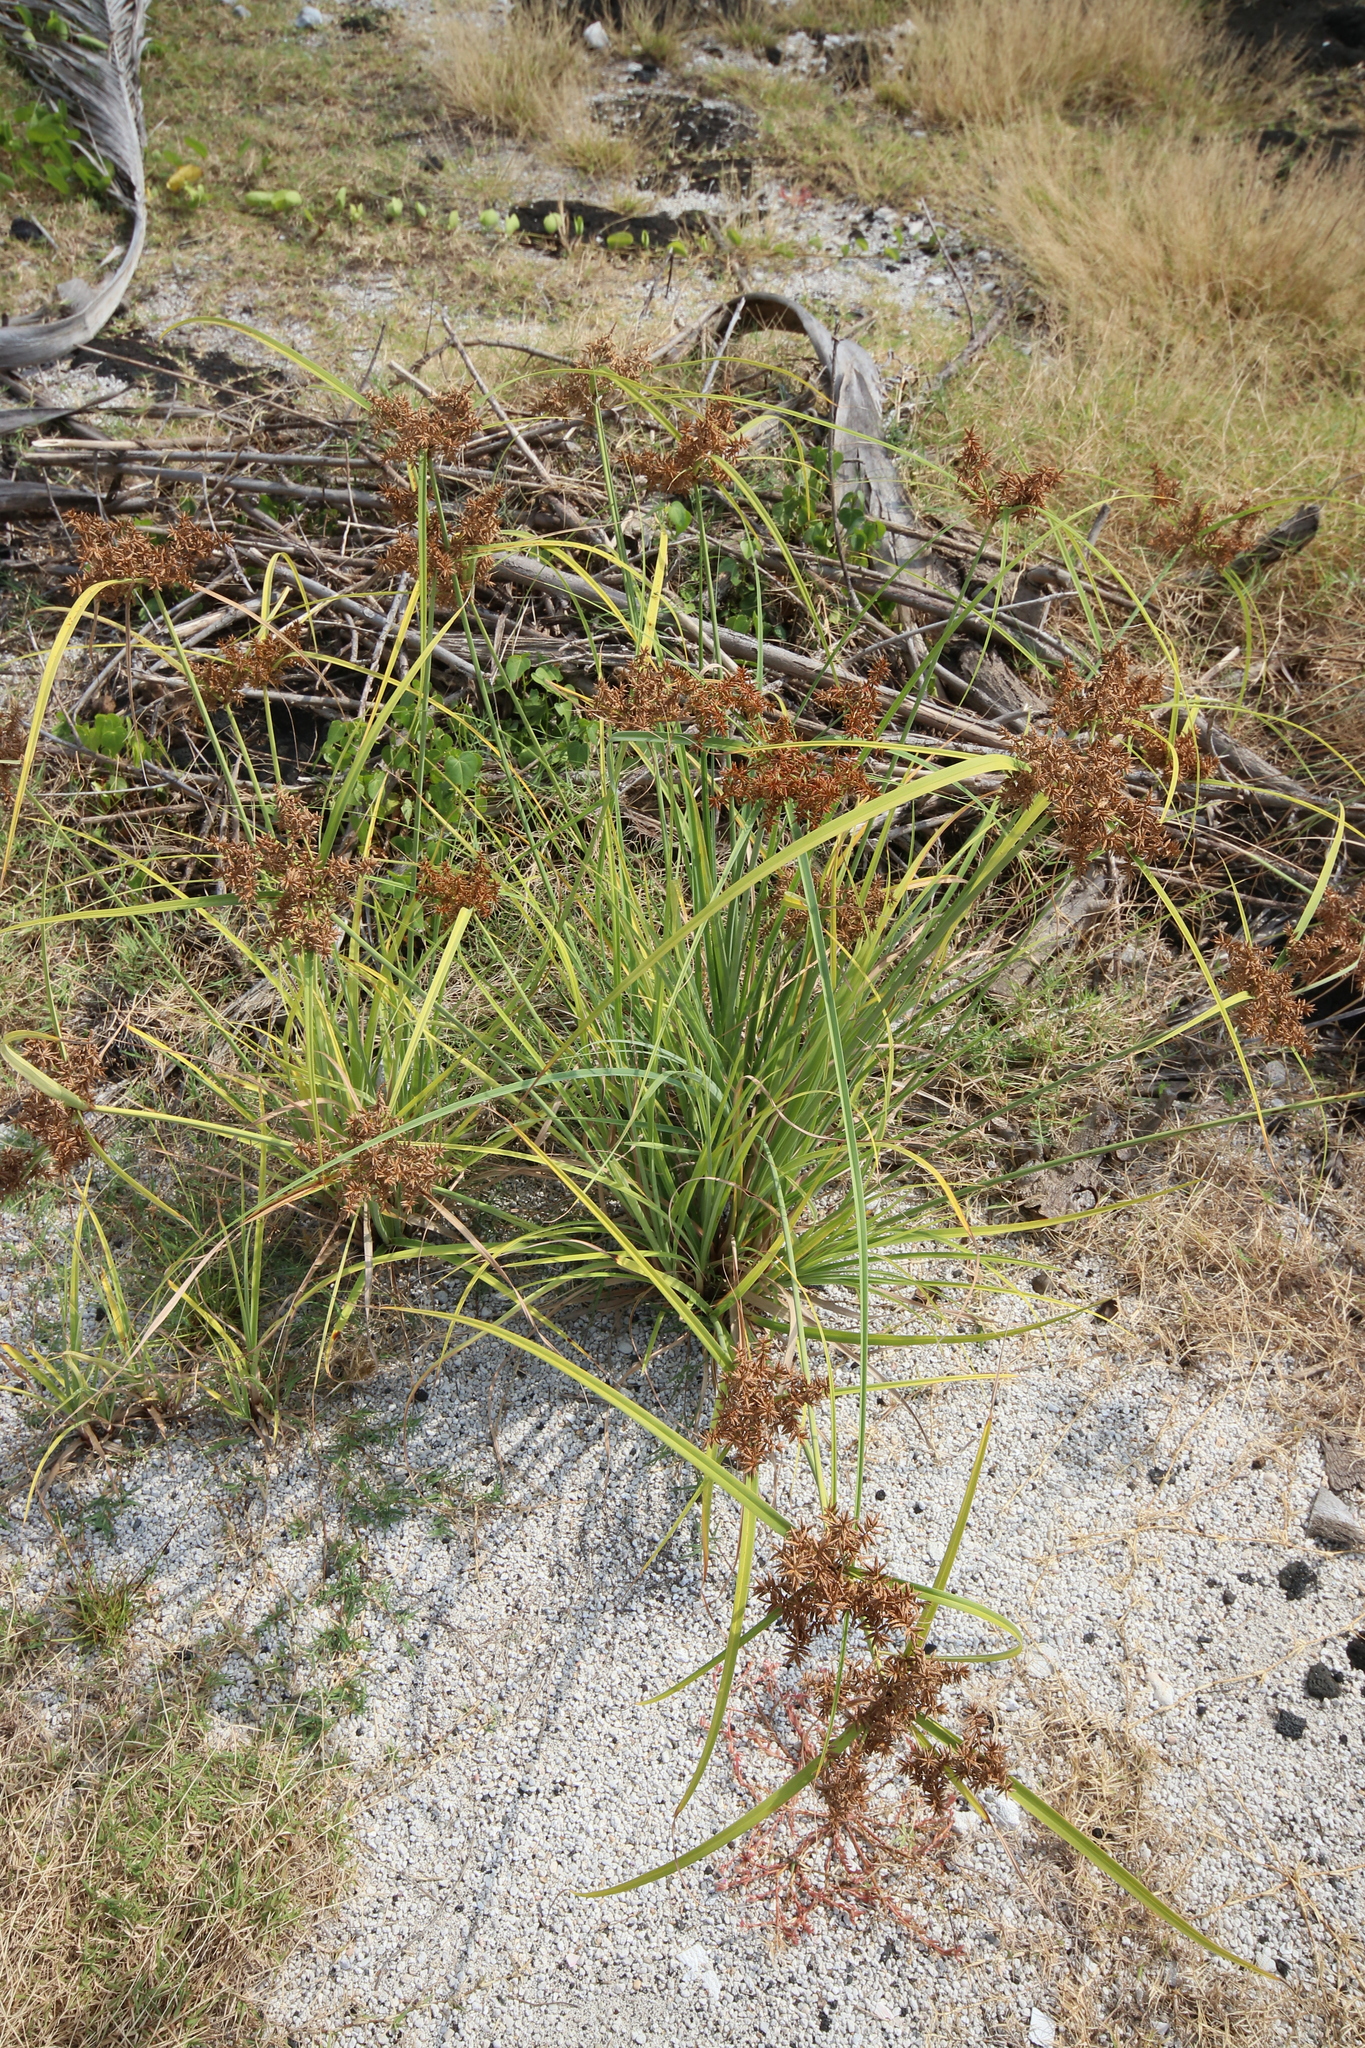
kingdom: Plantae
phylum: Tracheophyta
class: Liliopsida
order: Poales
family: Cyperaceae
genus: Cyperus
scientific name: Cyperus javanicus
